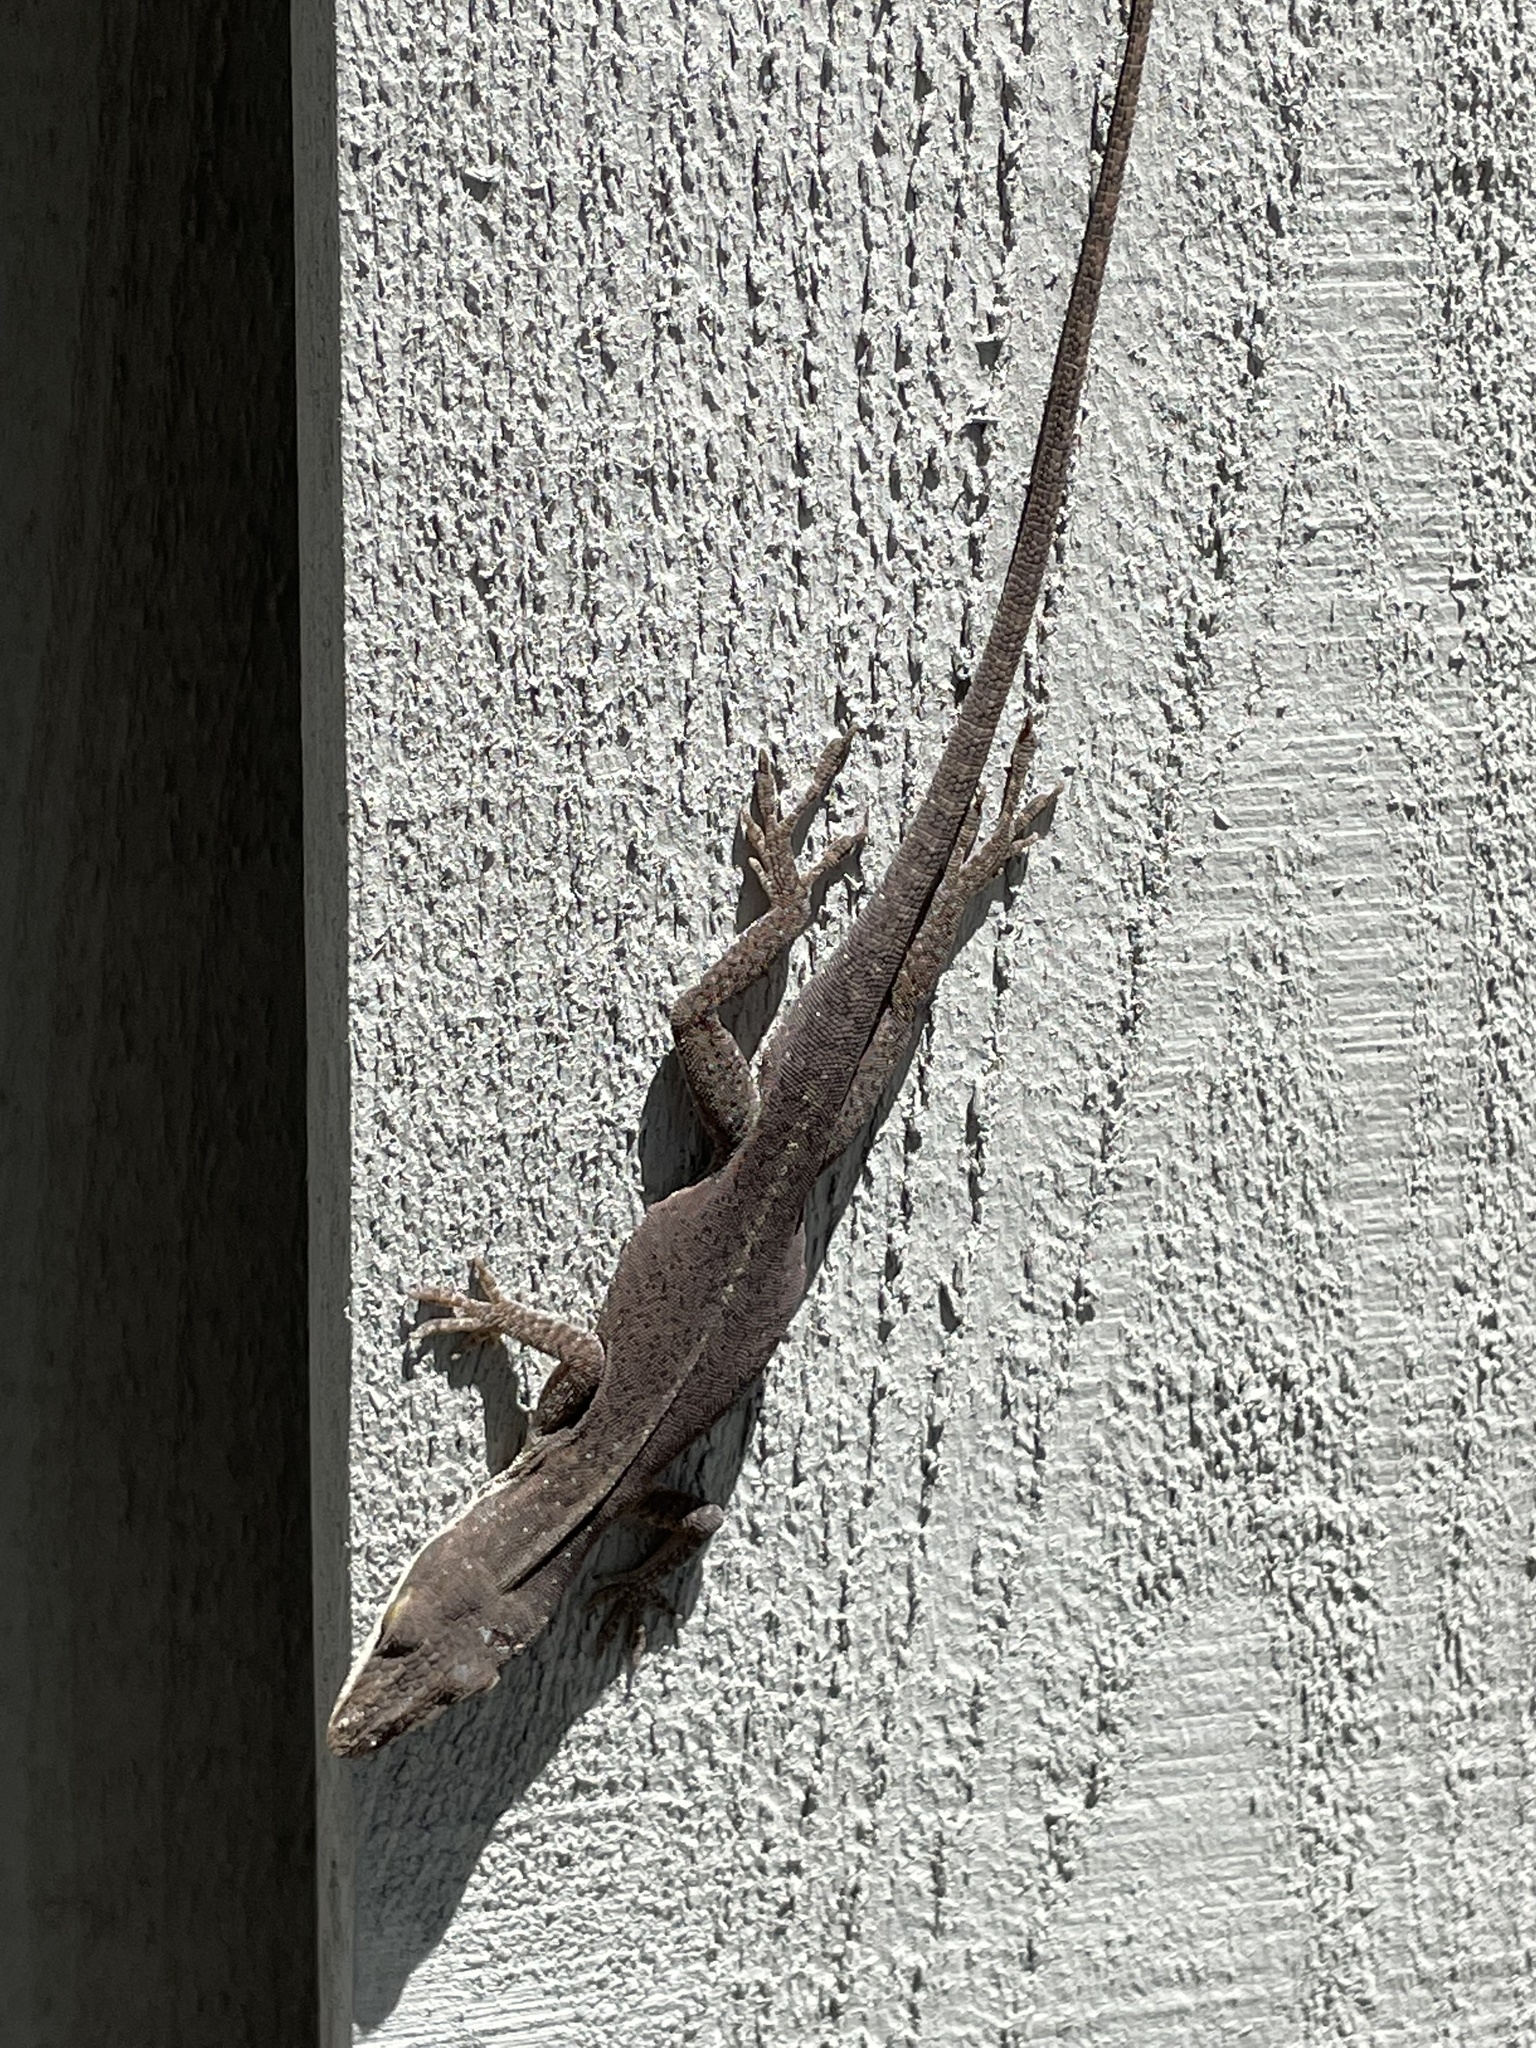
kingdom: Animalia
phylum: Chordata
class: Squamata
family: Dactyloidae
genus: Anolis
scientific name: Anolis carolinensis
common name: Green anole
